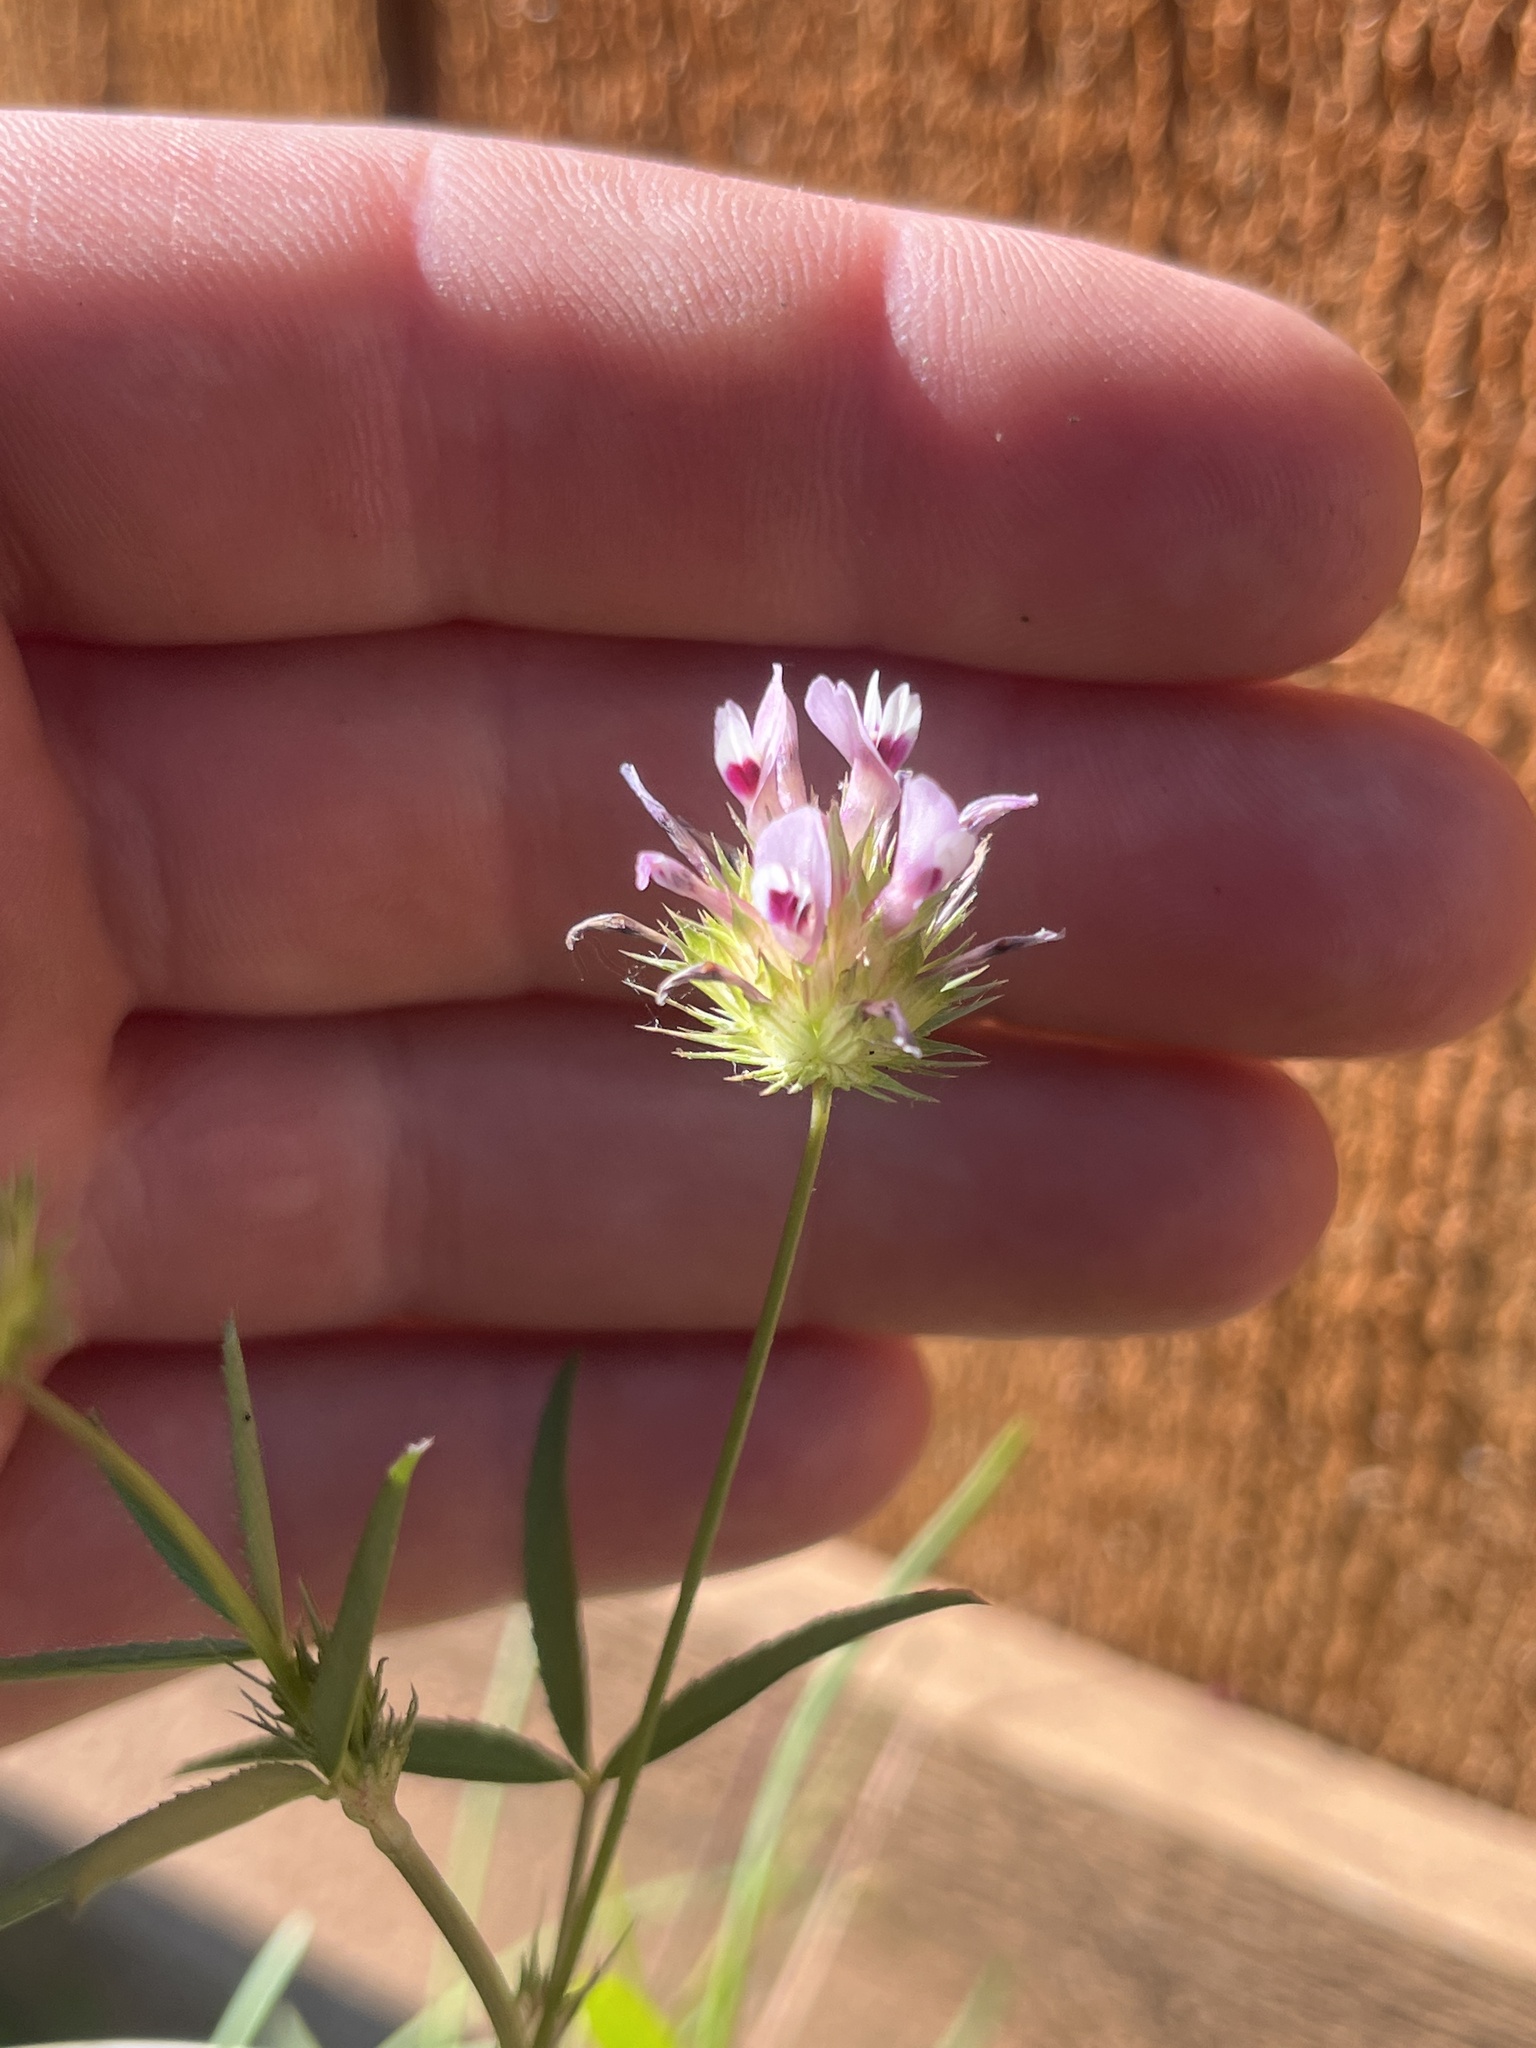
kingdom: Plantae
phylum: Tracheophyta
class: Magnoliopsida
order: Fabales
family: Fabaceae
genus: Trifolium
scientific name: Trifolium willdenovii
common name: Tomcat clover
